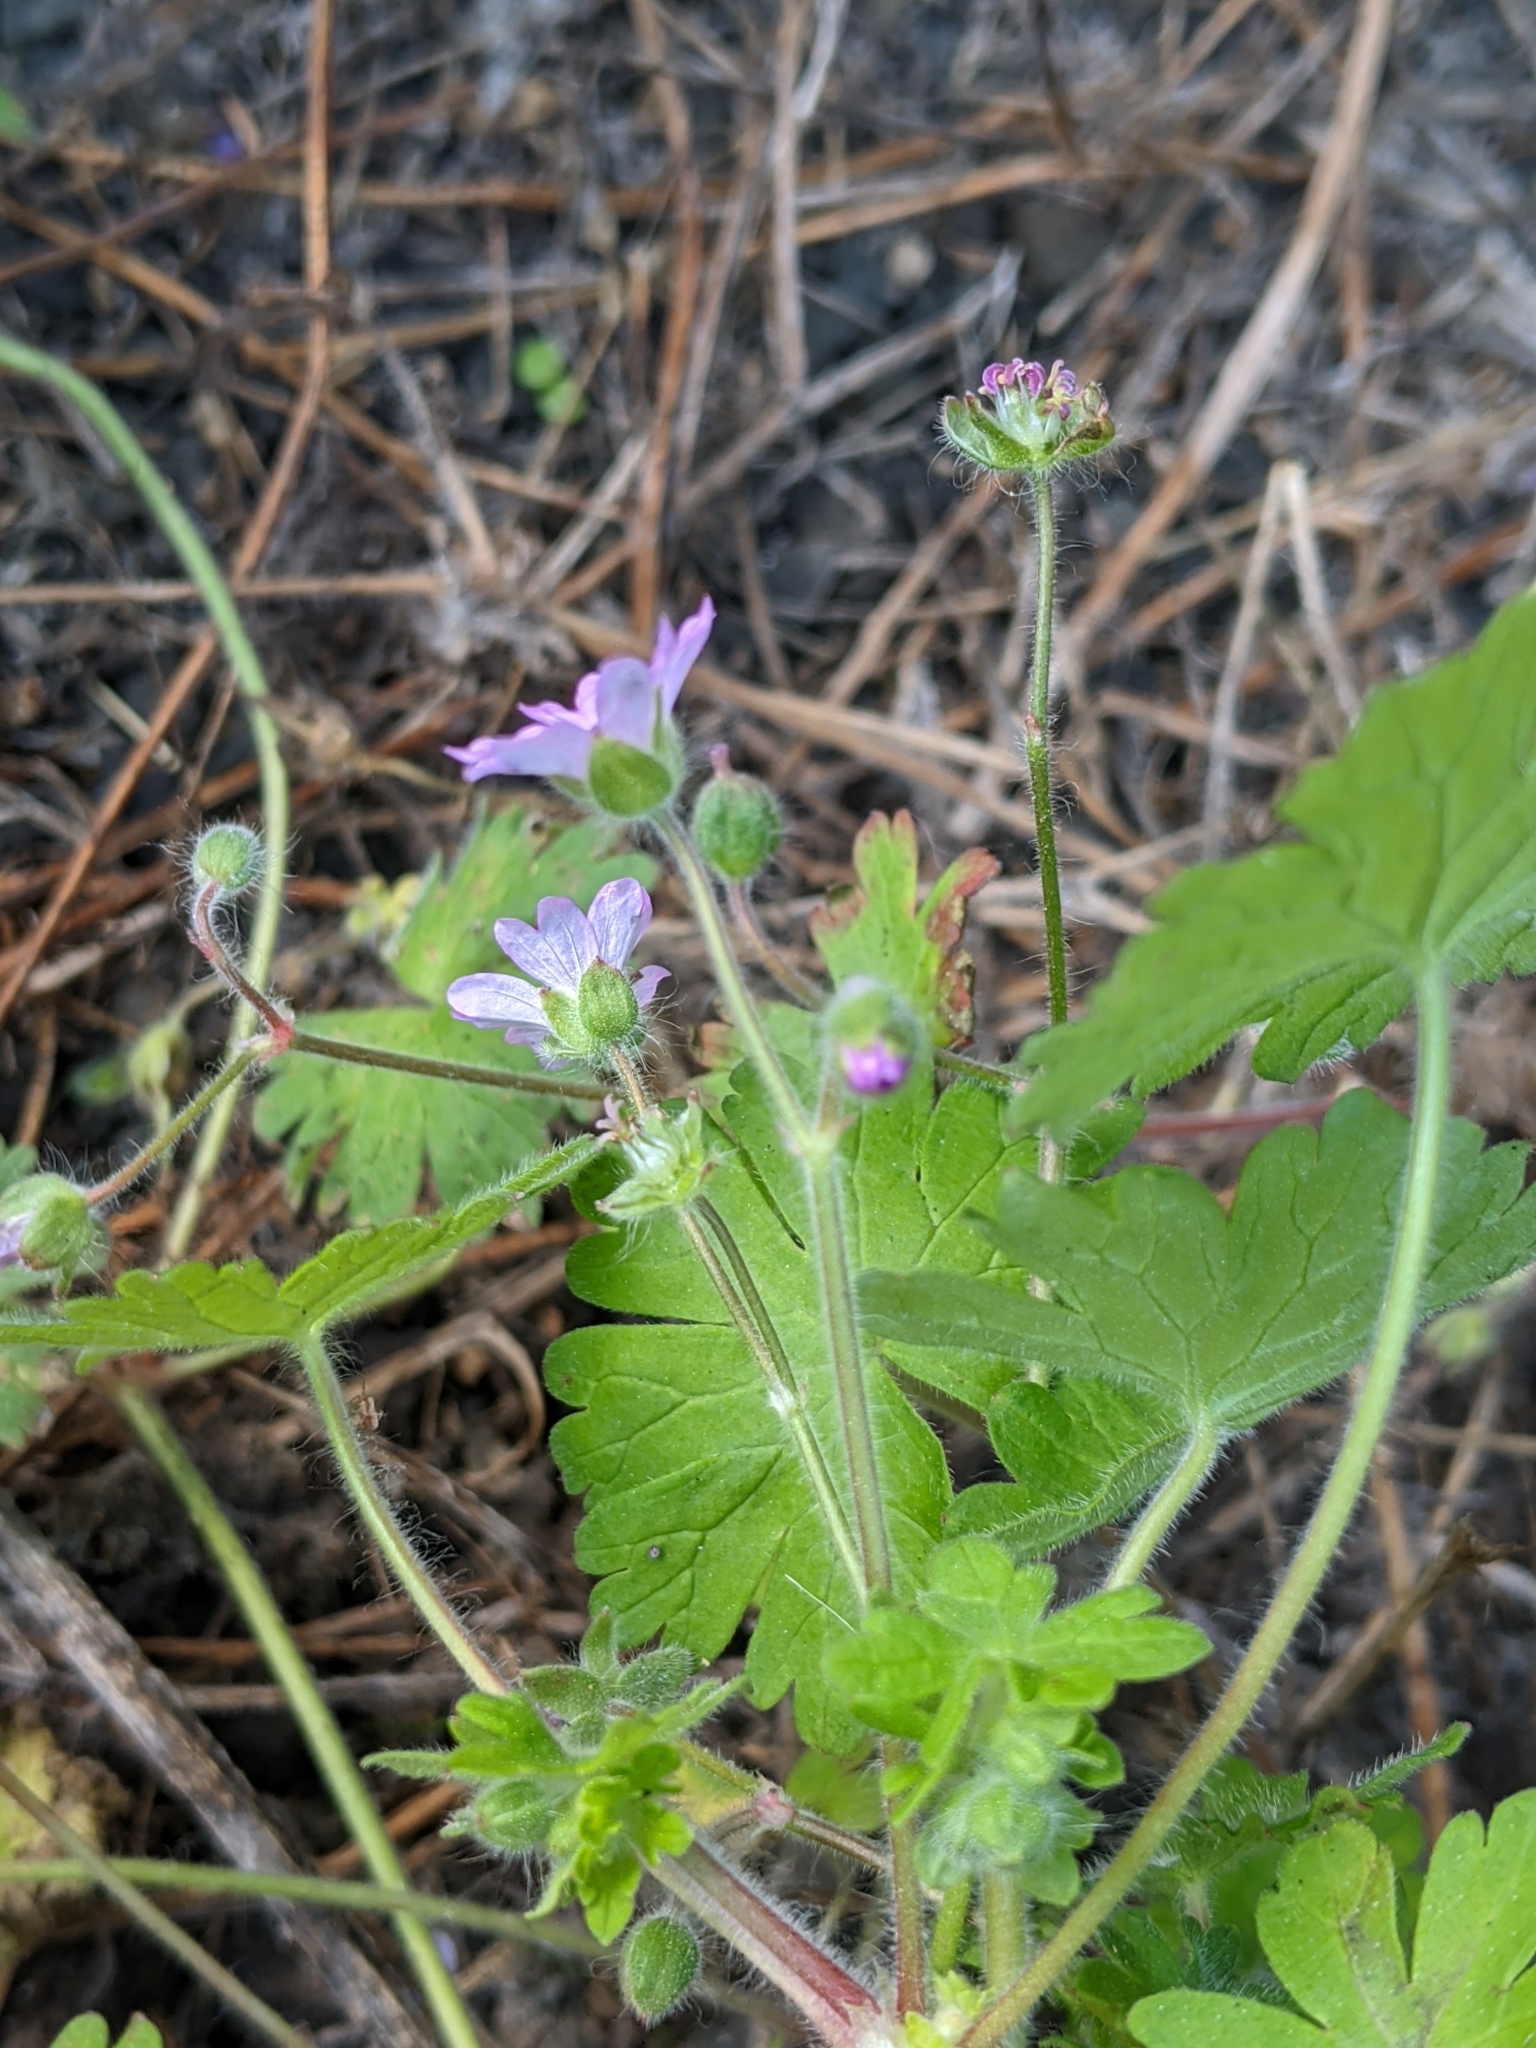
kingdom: Plantae
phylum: Tracheophyta
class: Magnoliopsida
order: Geraniales
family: Geraniaceae
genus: Geranium
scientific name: Geranium molle
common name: Dove's-foot crane's-bill
